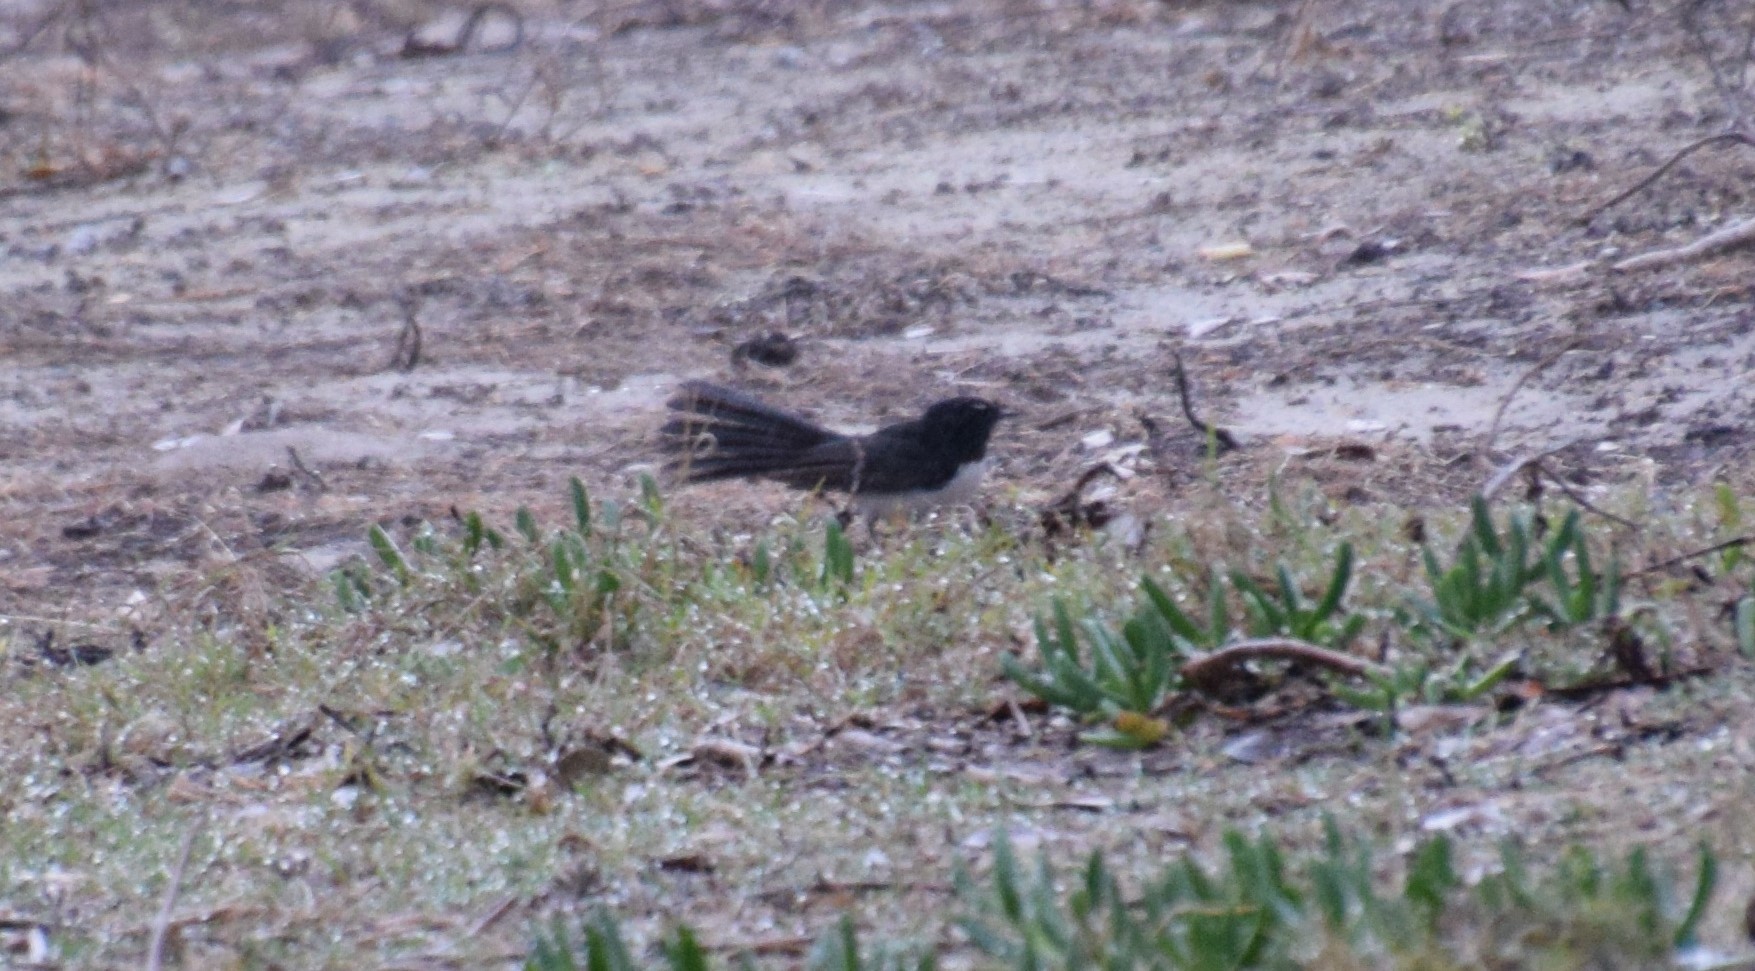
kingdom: Animalia
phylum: Chordata
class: Aves
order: Passeriformes
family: Rhipiduridae
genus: Rhipidura
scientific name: Rhipidura leucophrys
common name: Willie wagtail
